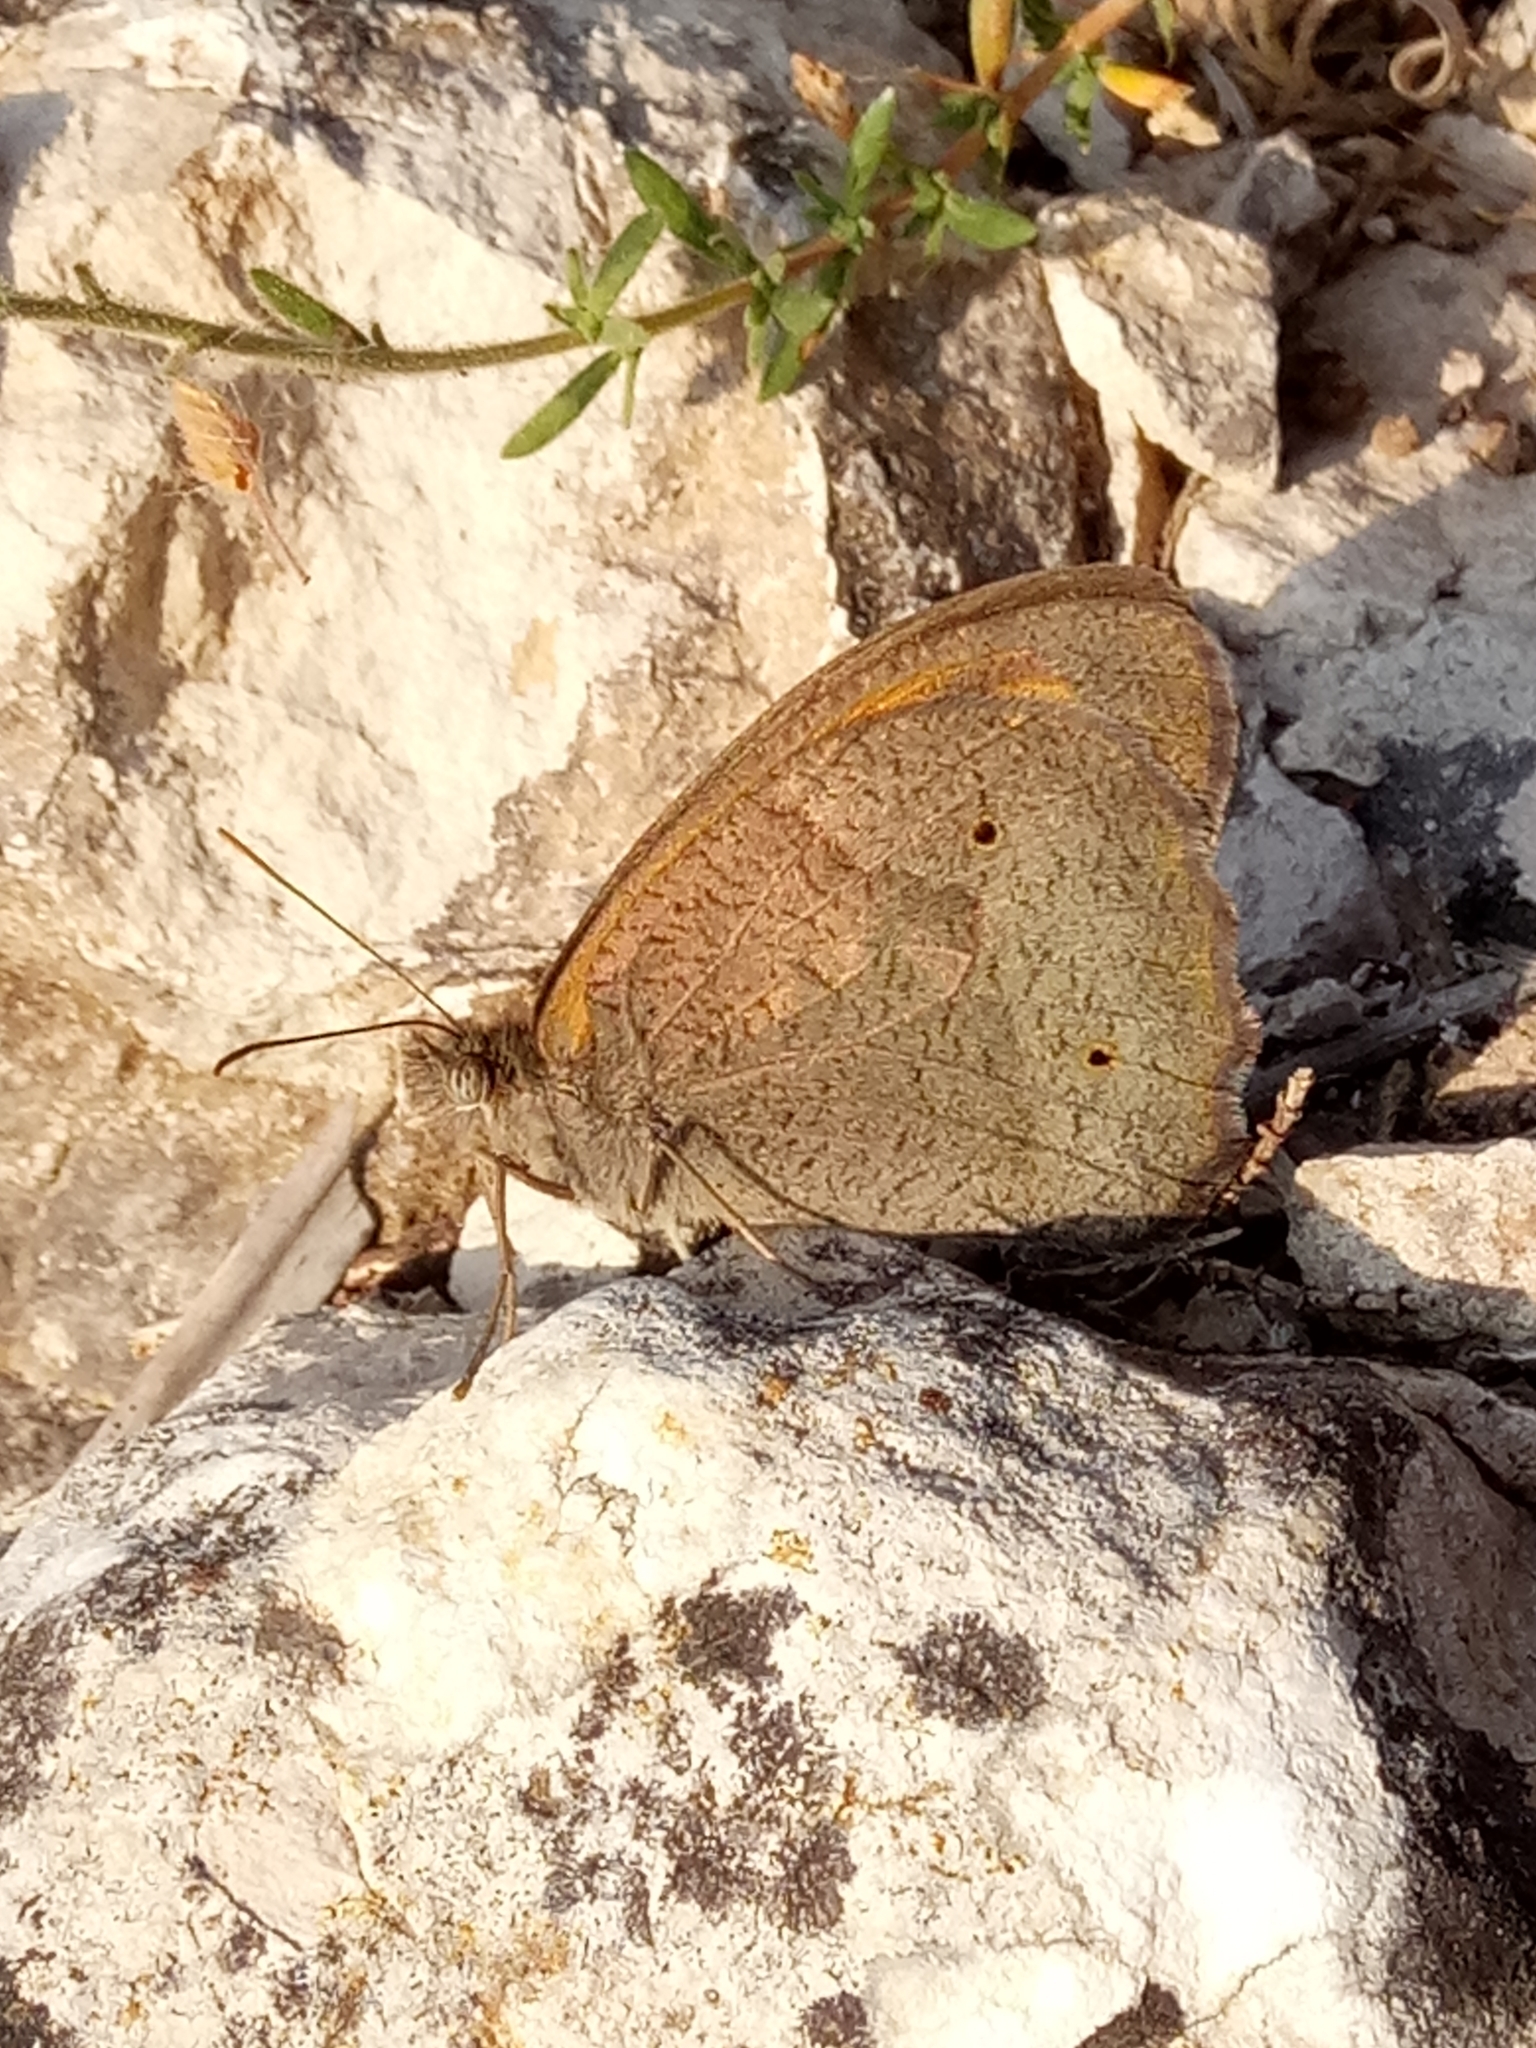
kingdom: Animalia
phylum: Arthropoda
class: Insecta
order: Lepidoptera
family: Nymphalidae
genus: Maniola
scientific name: Maniola jurtina
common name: Meadow brown
